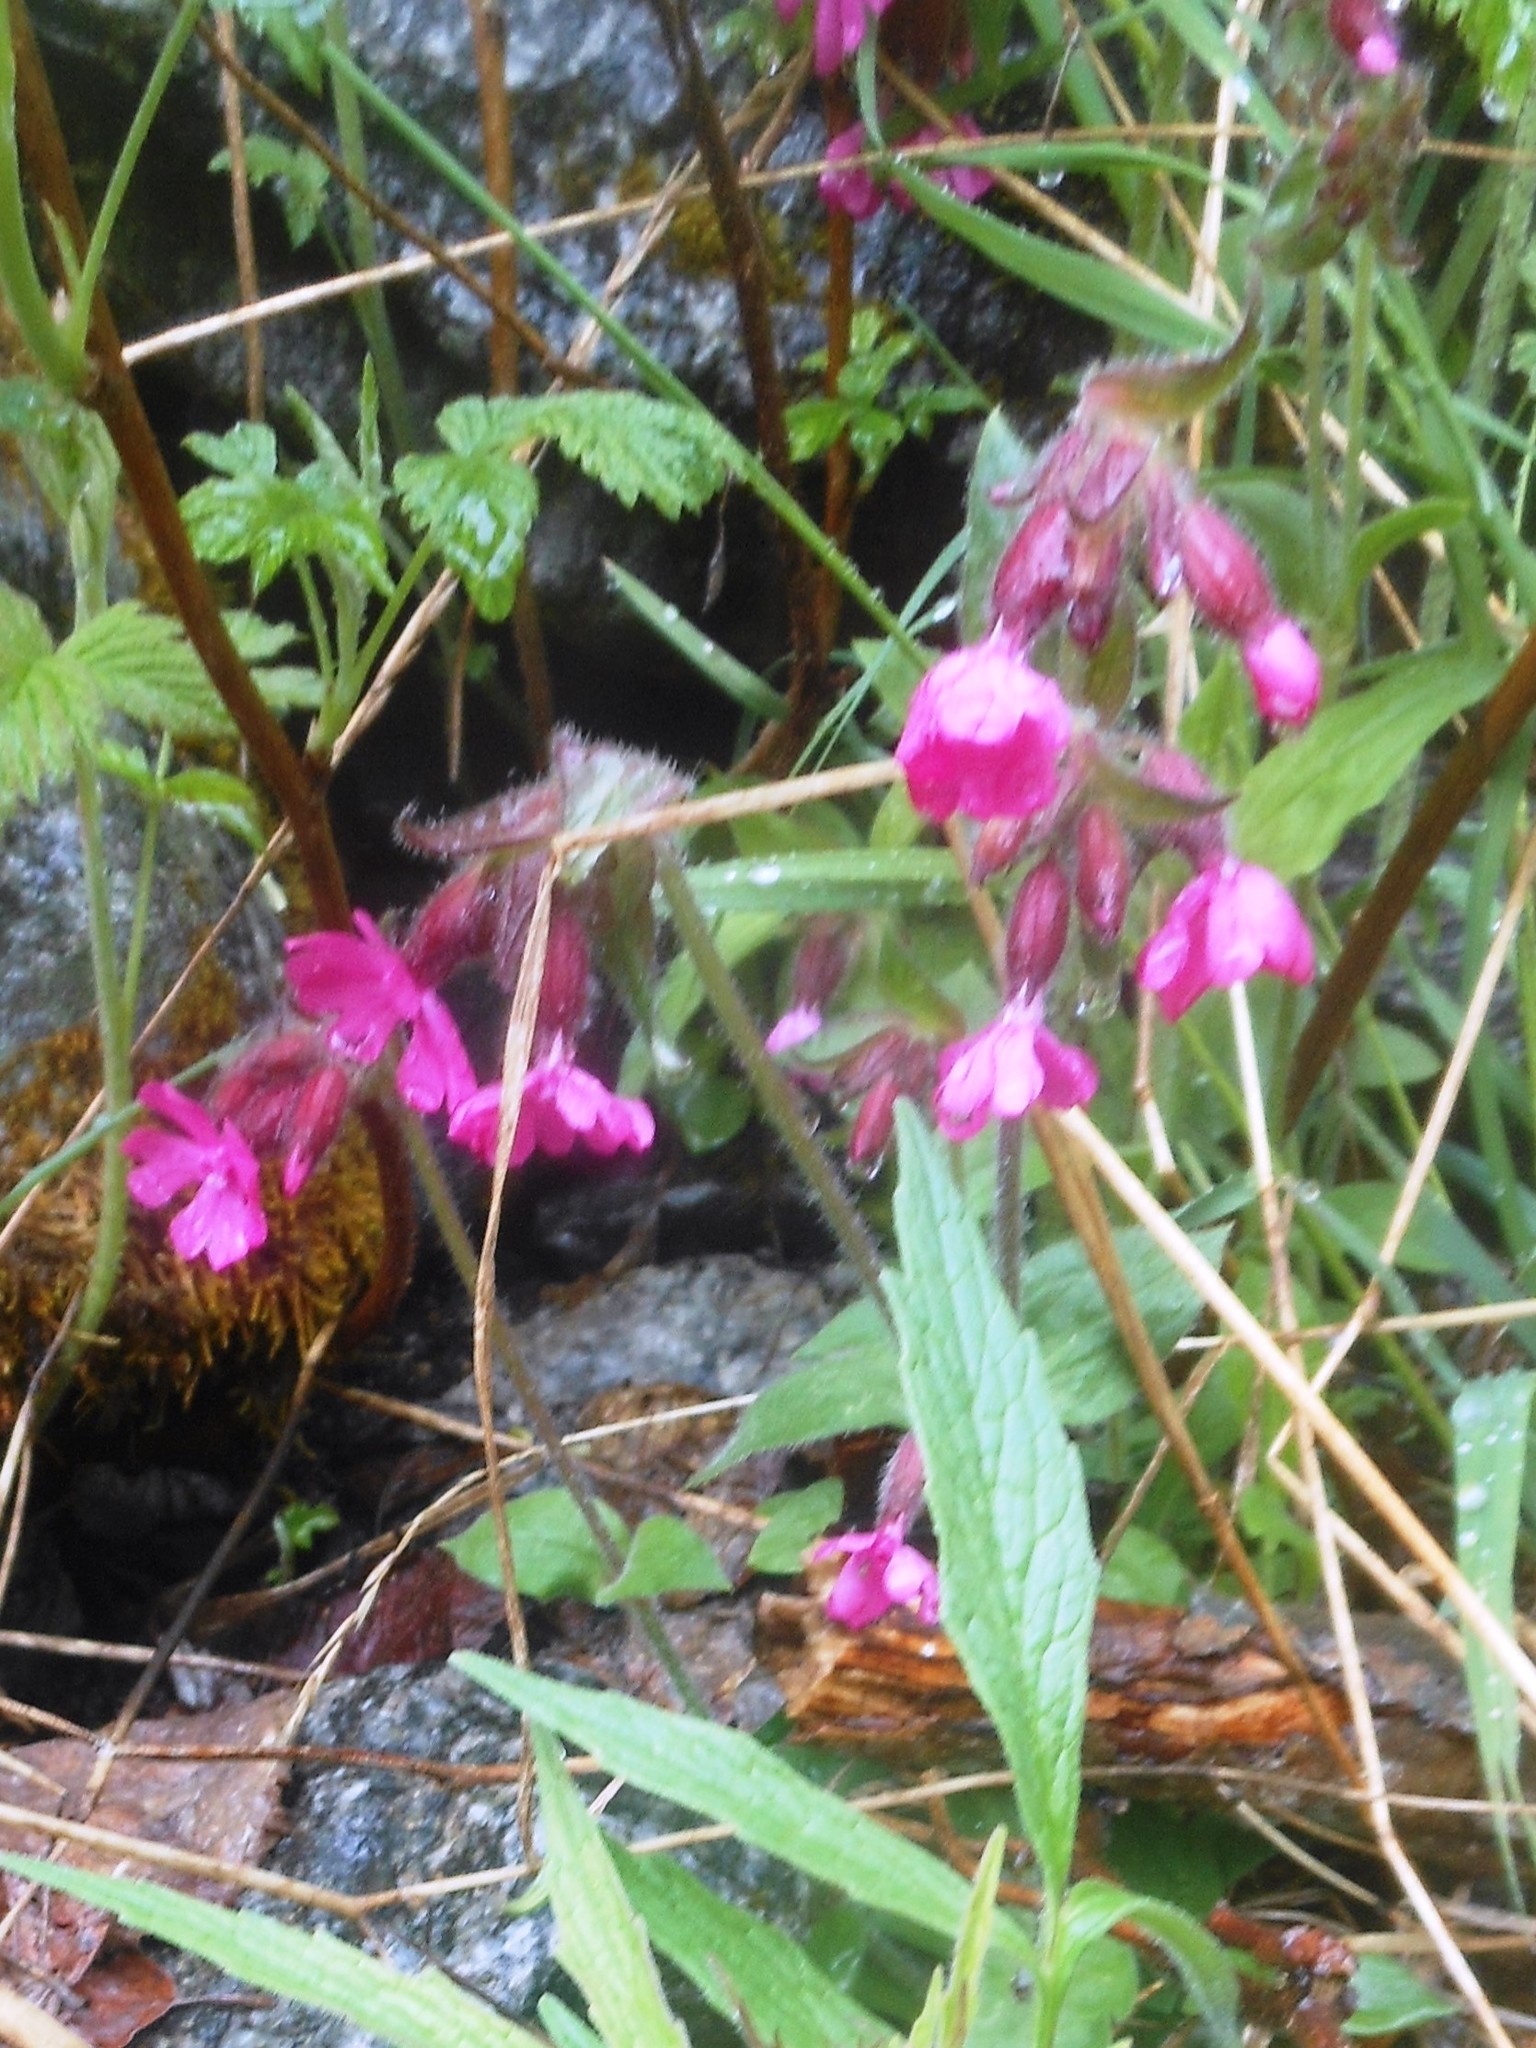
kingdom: Plantae
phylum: Tracheophyta
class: Magnoliopsida
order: Caryophyllales
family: Caryophyllaceae
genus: Silene
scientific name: Silene dioica
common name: Red campion
